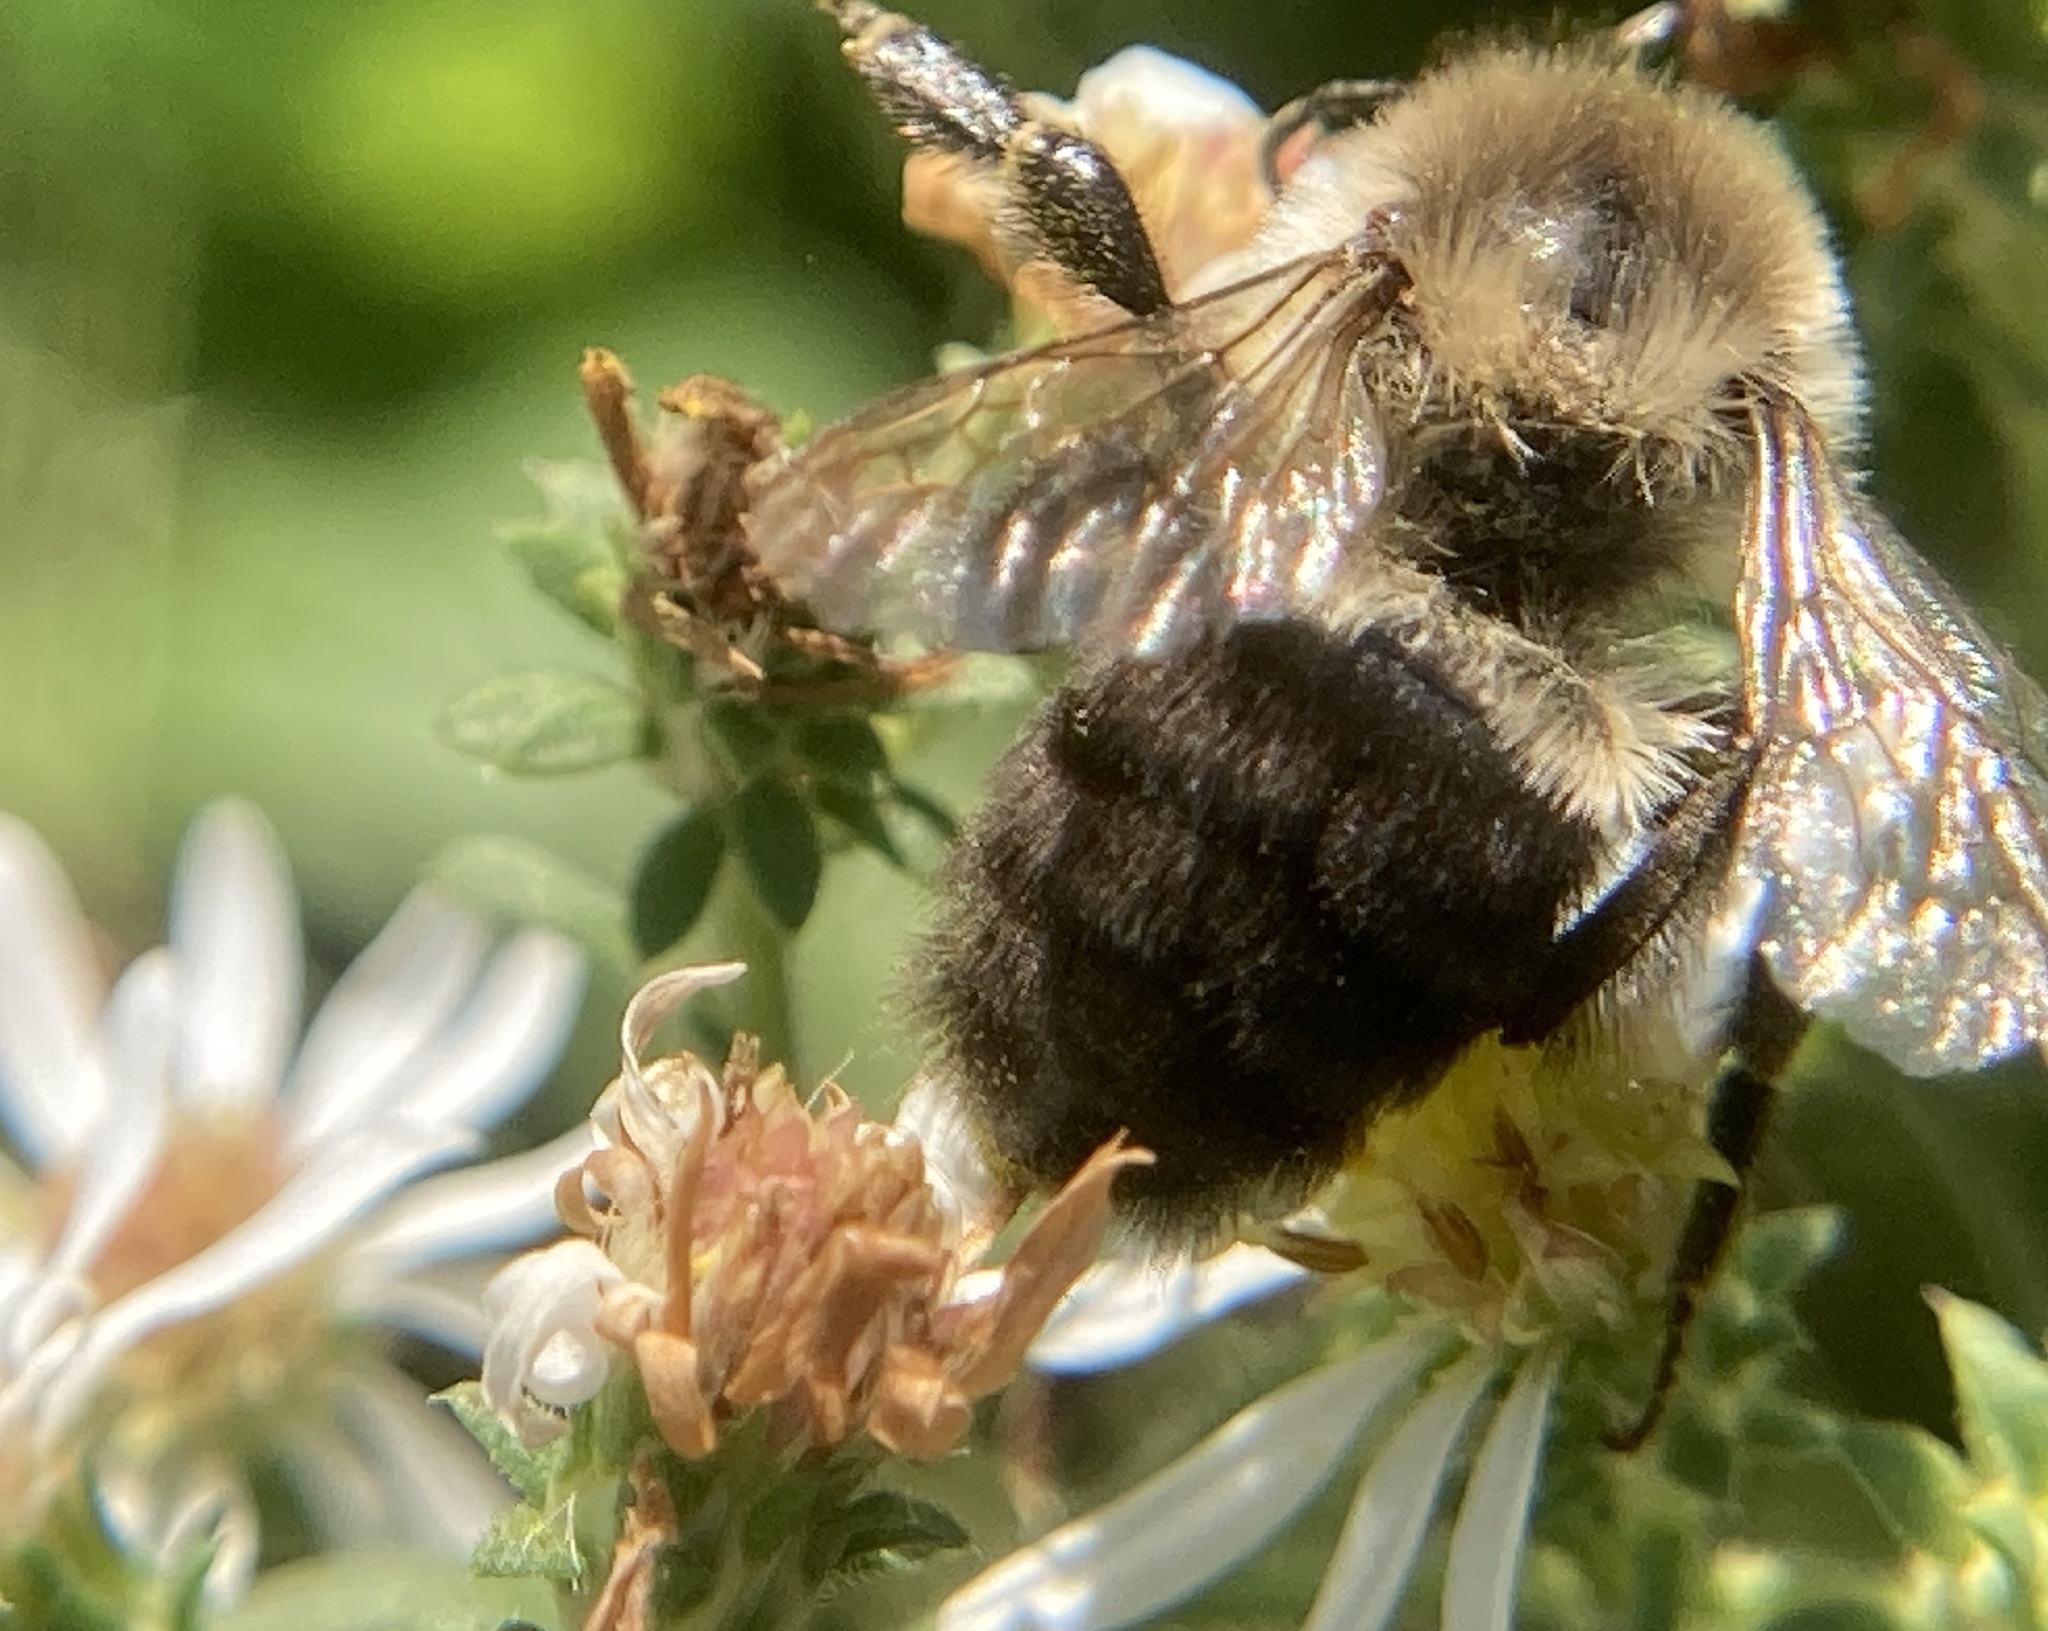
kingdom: Animalia
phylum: Arthropoda
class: Insecta
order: Hymenoptera
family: Apidae
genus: Bombus
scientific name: Bombus impatiens
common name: Common eastern bumble bee
